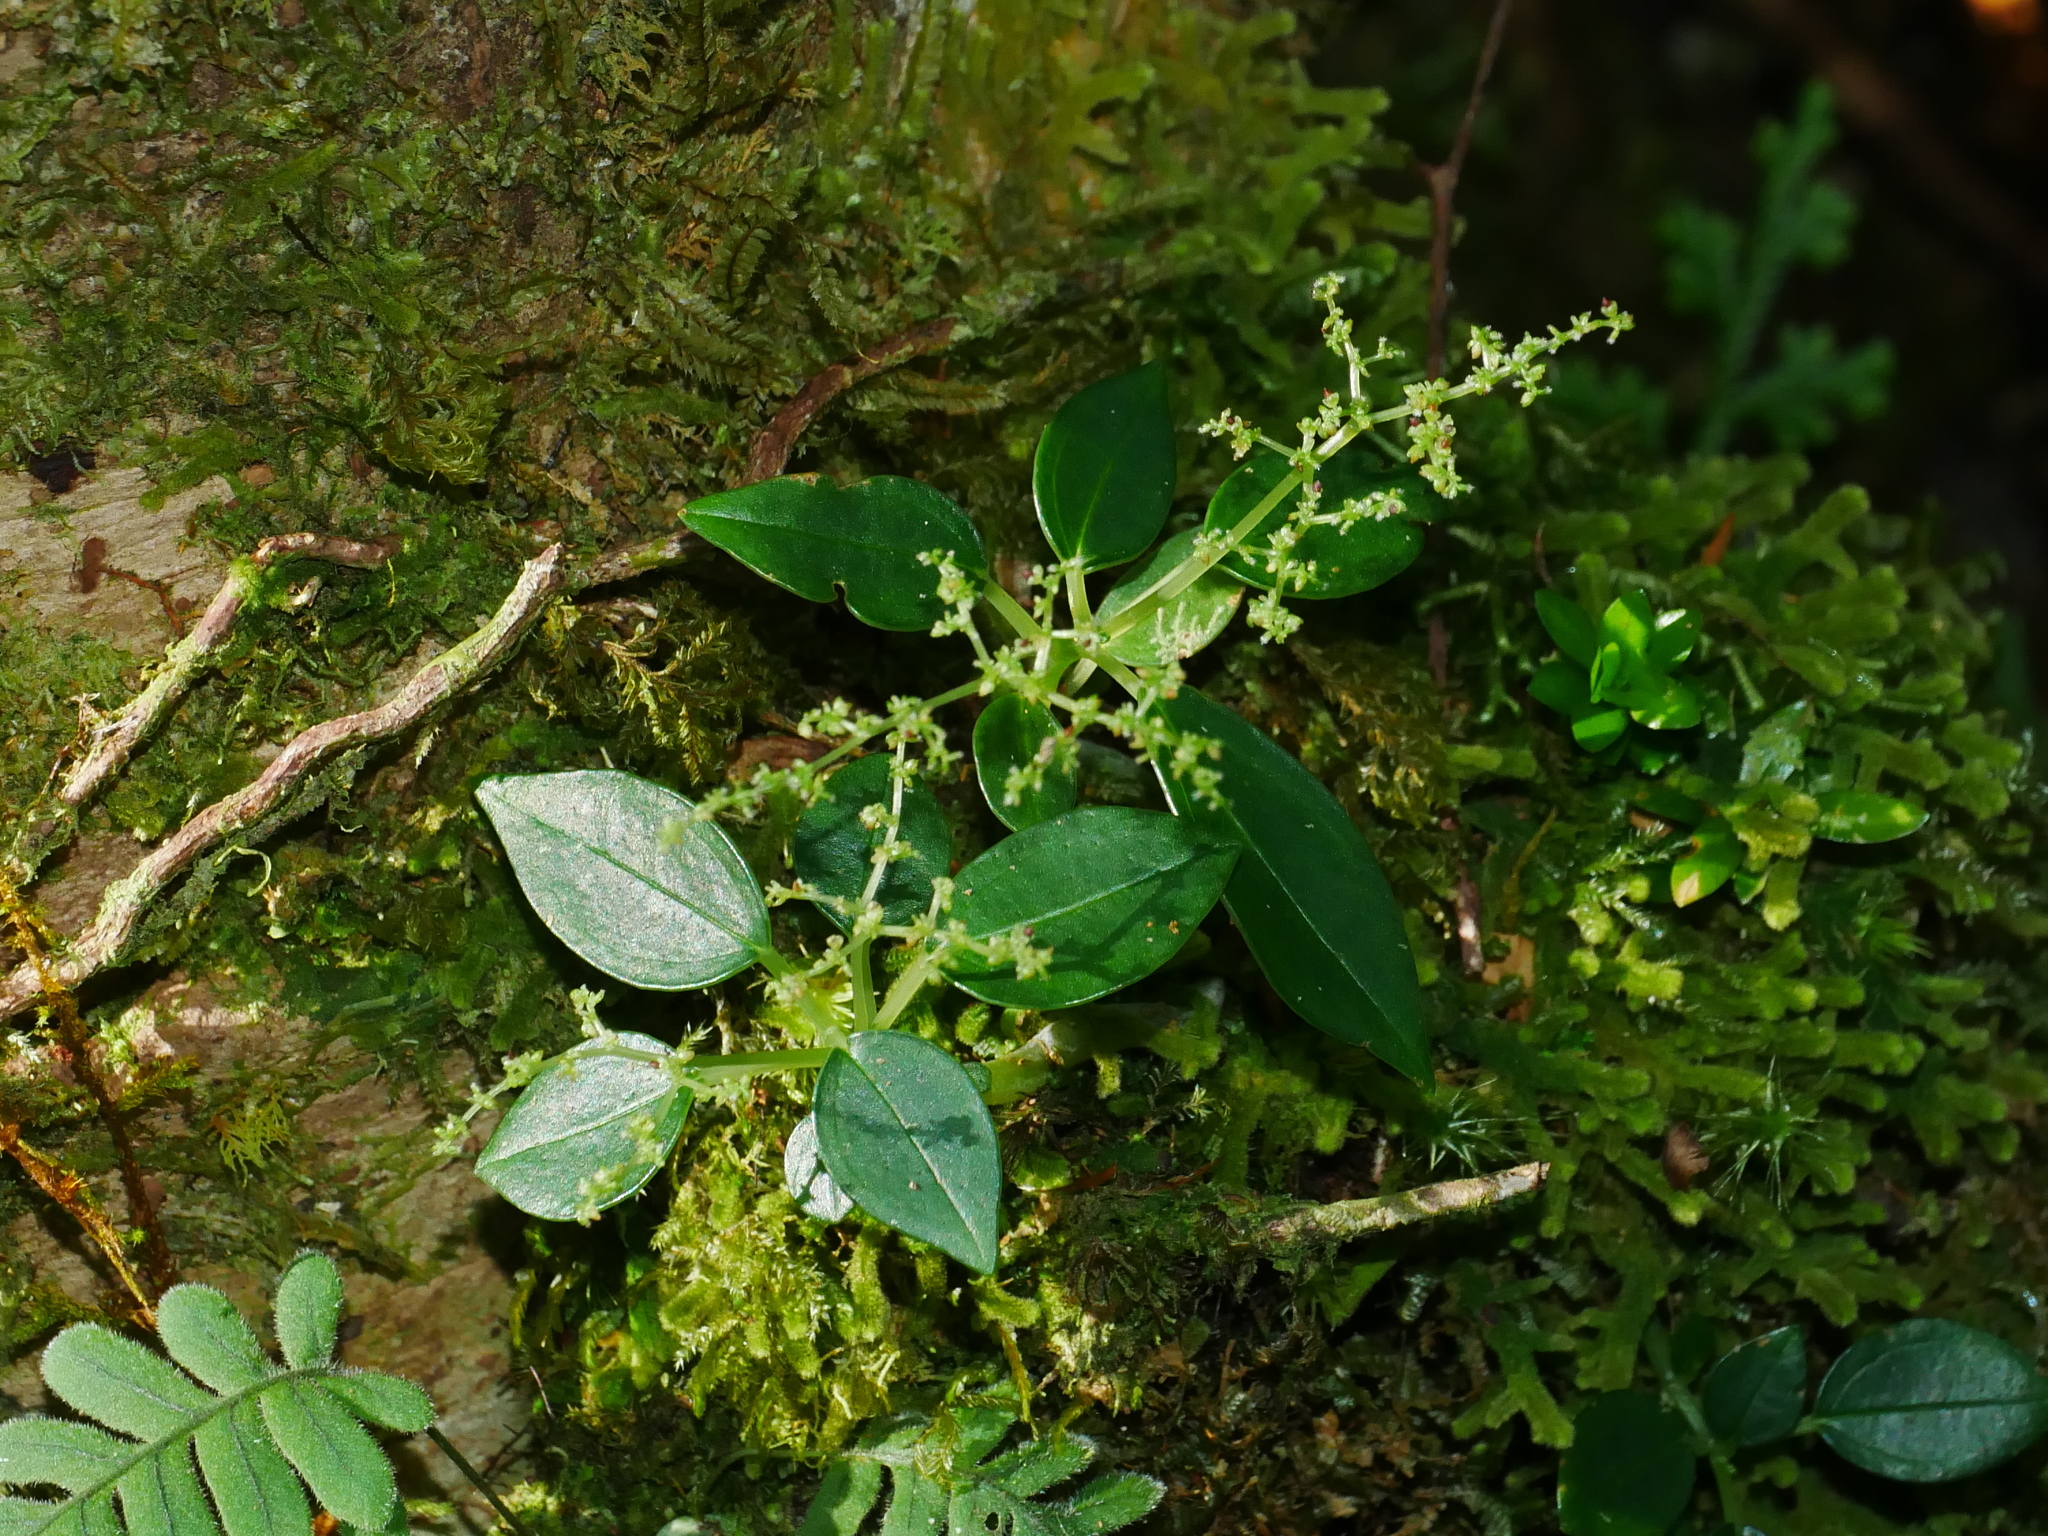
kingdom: Plantae
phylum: Tracheophyta
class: Magnoliopsida
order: Rosales
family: Urticaceae
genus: Pilea
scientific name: Pilea plataniflora
